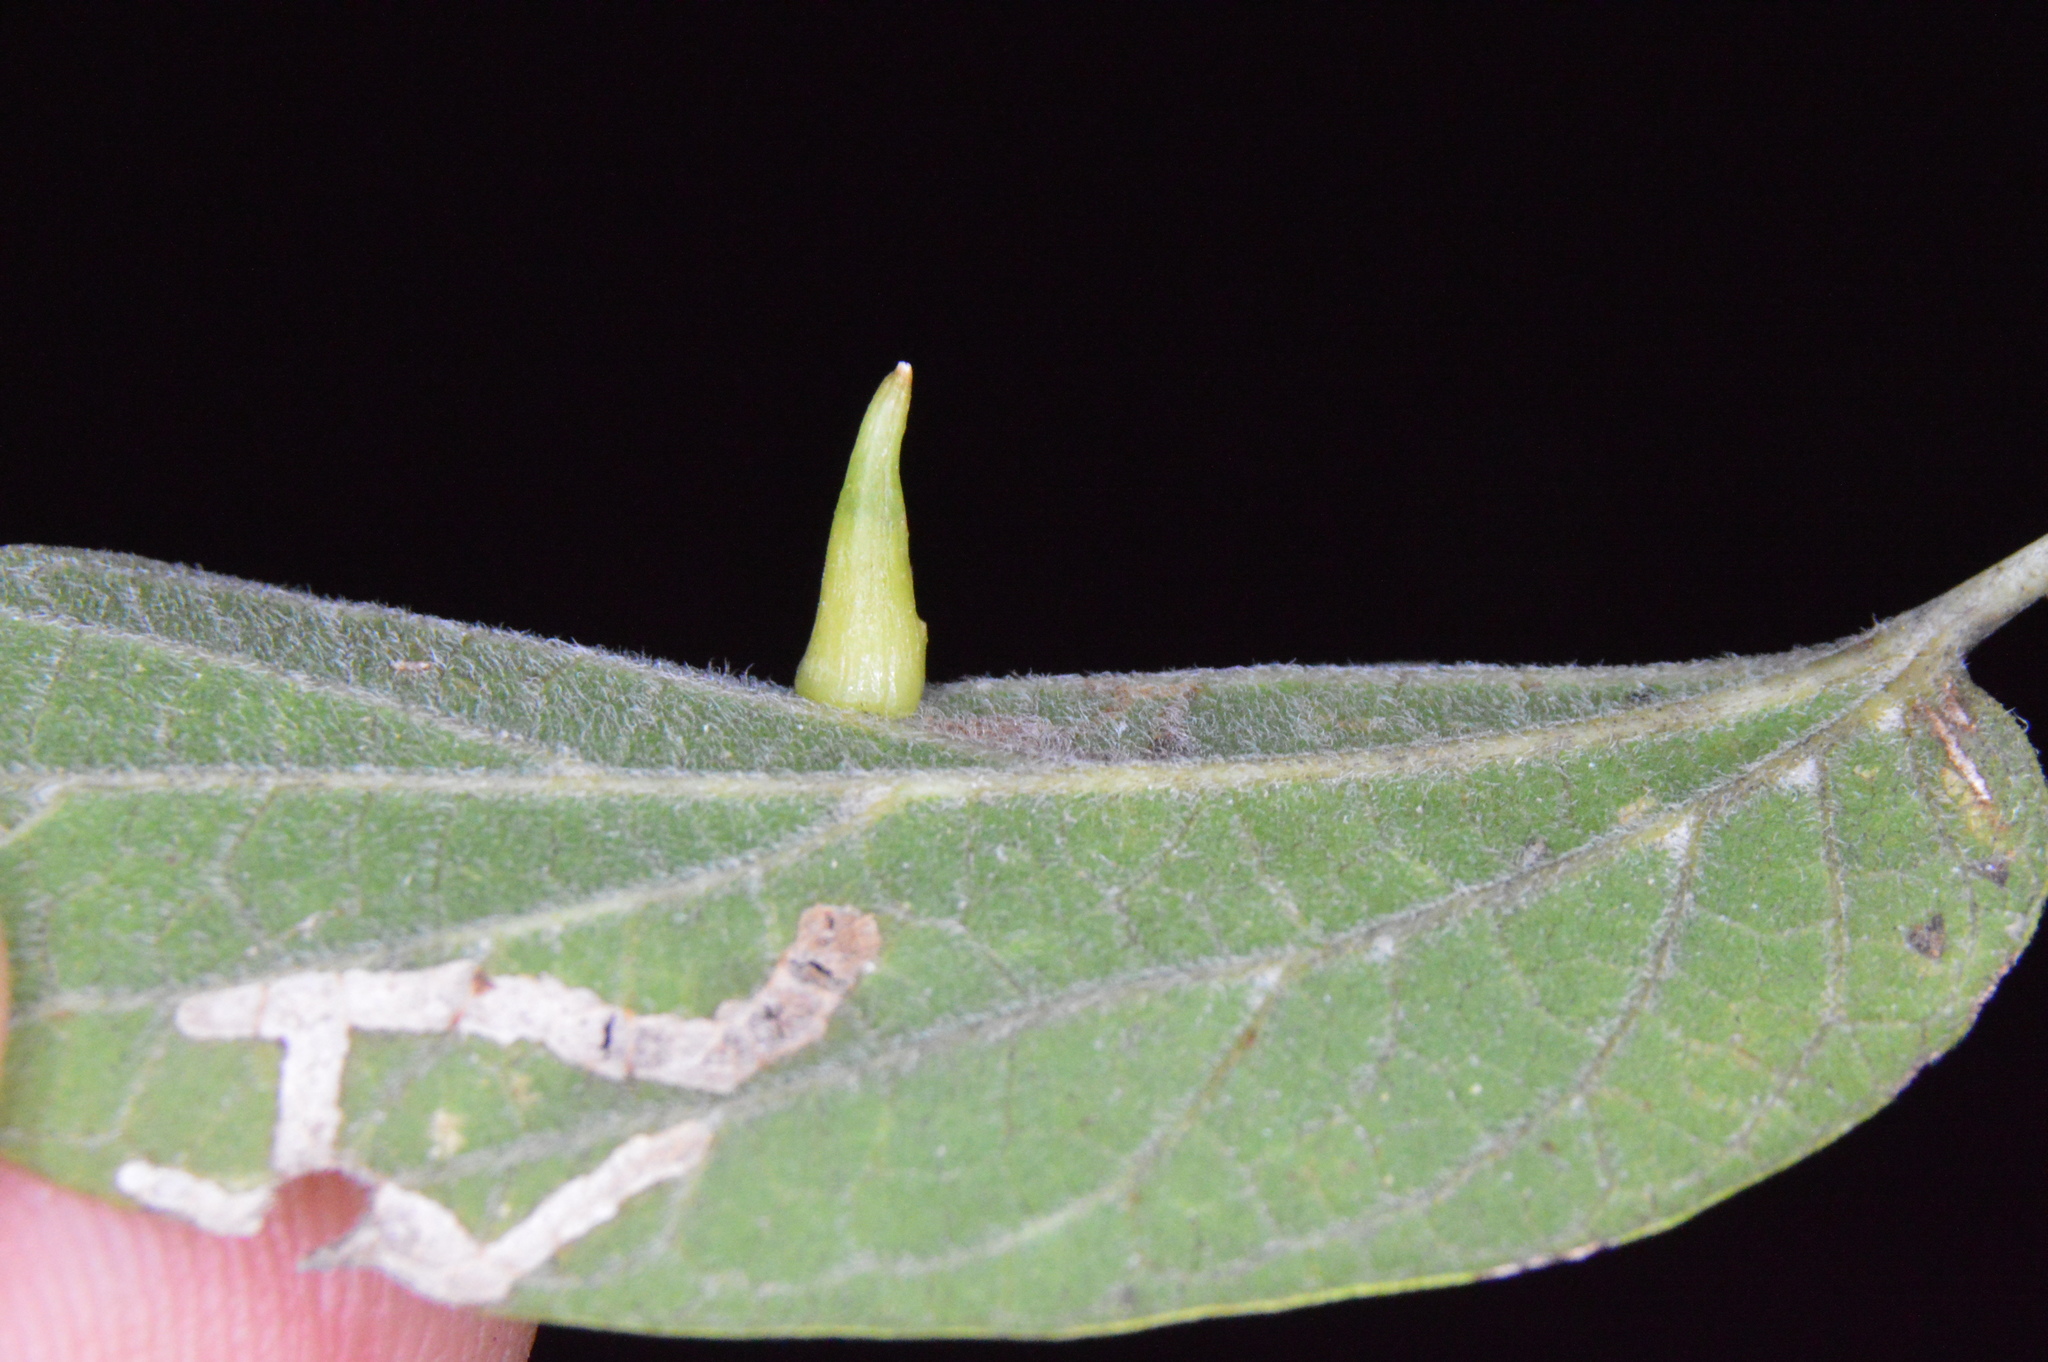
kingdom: Animalia
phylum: Arthropoda
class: Insecta
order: Diptera
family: Cecidomyiidae
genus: Celticecis
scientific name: Celticecis subulata
